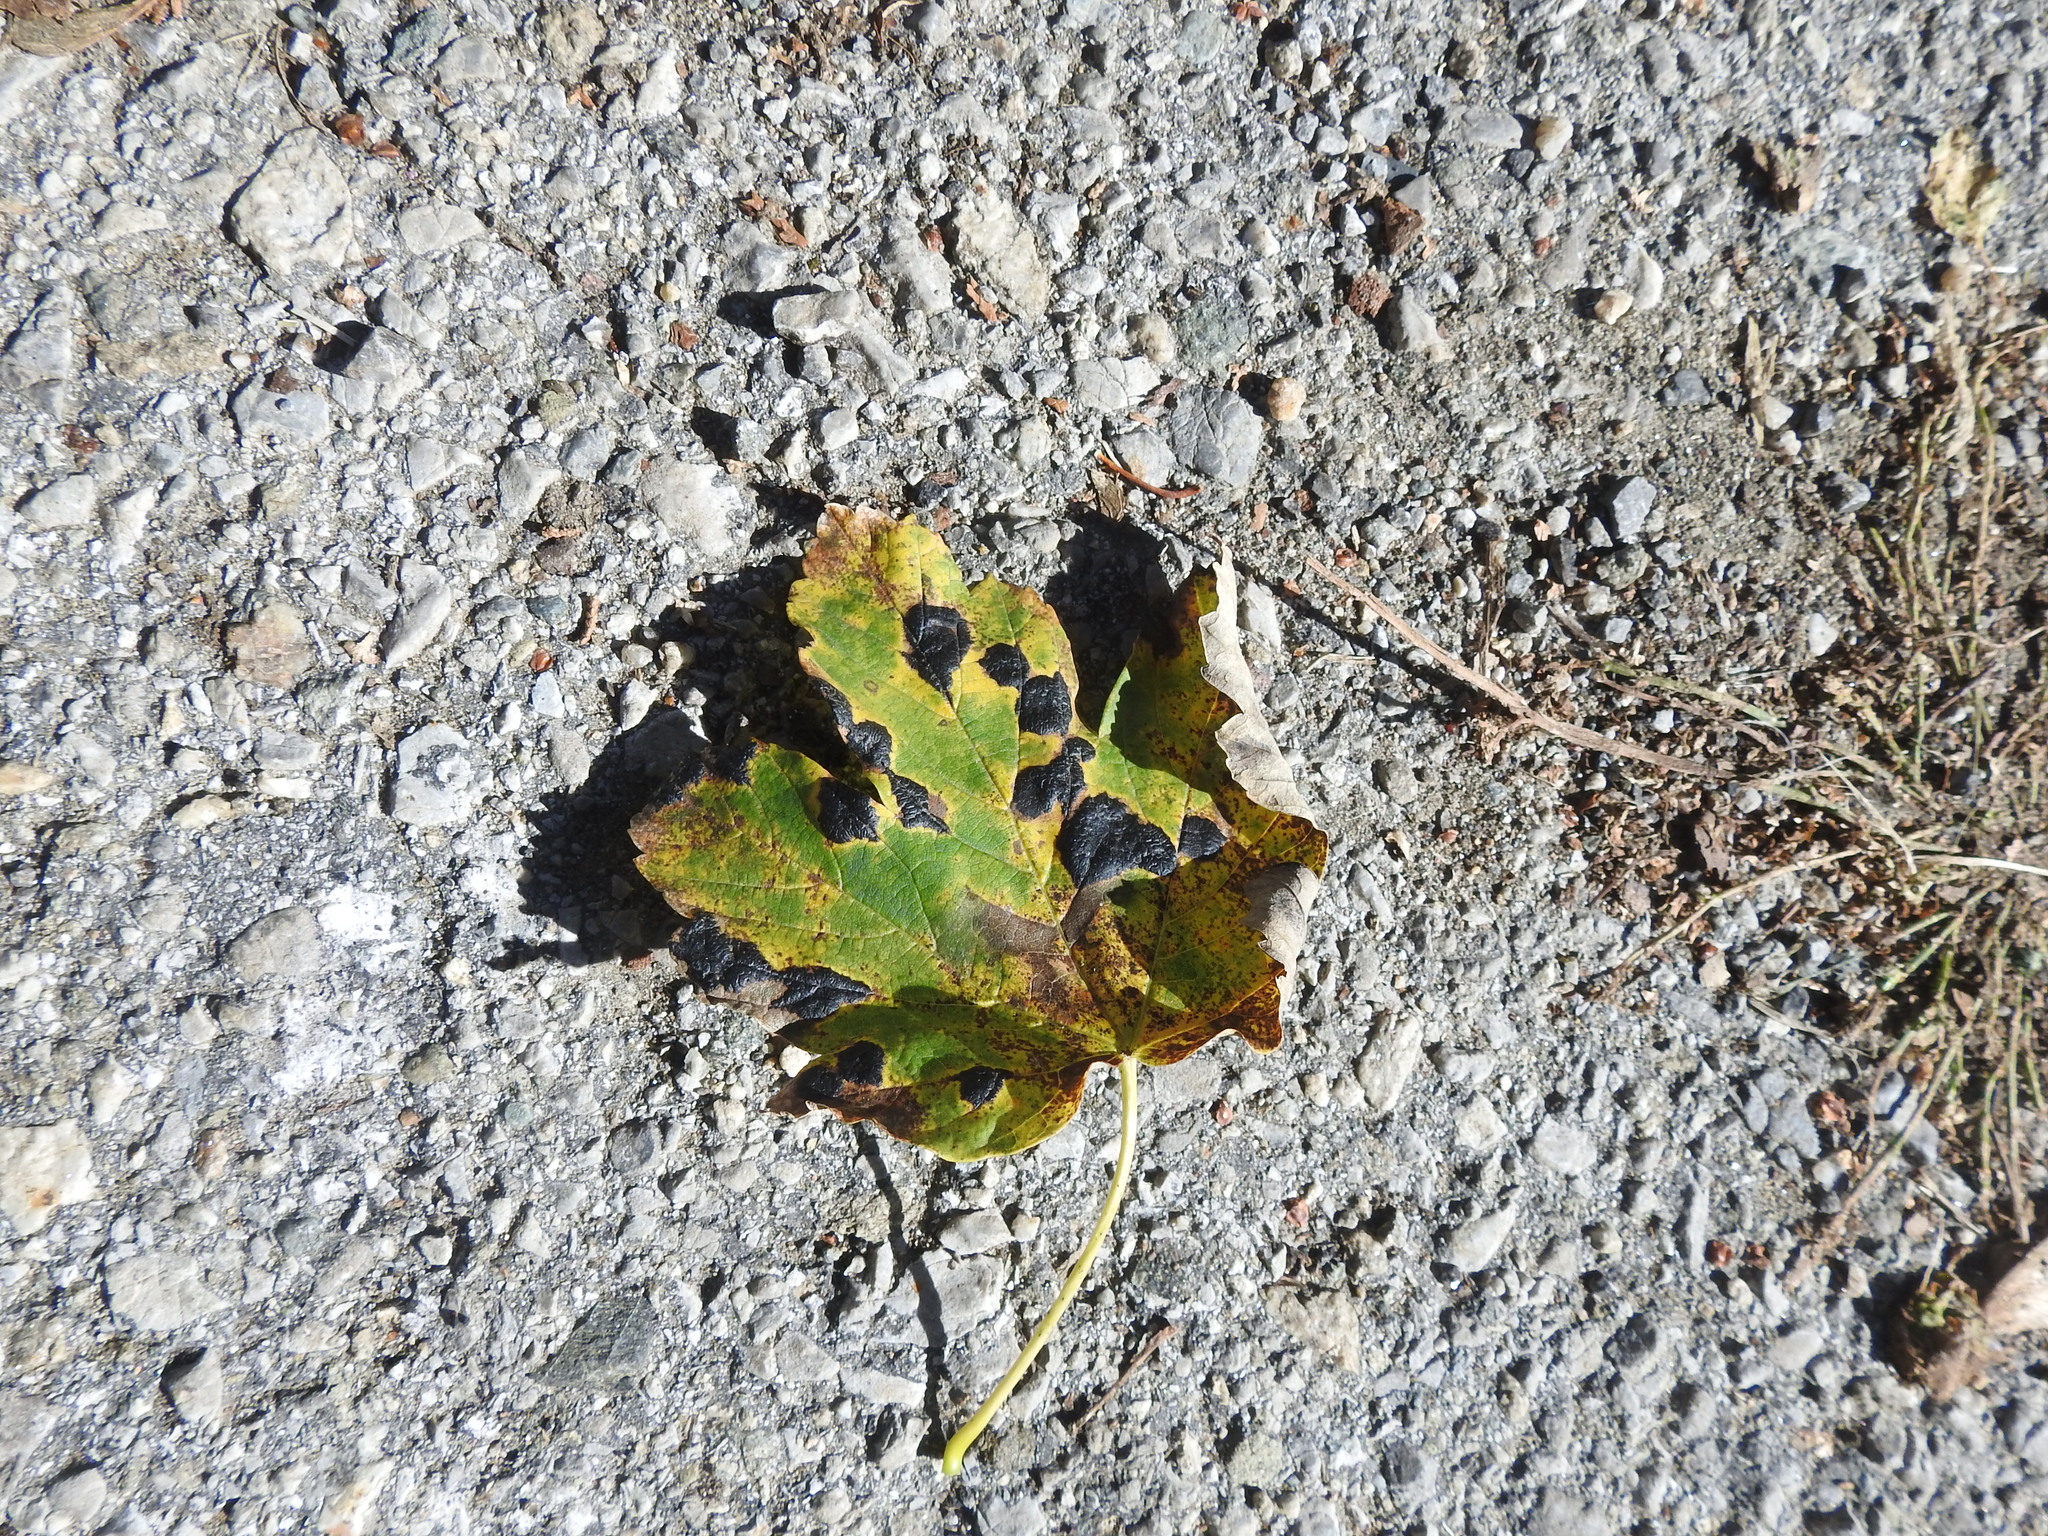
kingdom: Fungi
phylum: Ascomycota
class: Leotiomycetes
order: Rhytismatales
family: Rhytismataceae
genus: Rhytisma
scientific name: Rhytisma acerinum
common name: European tar spot
